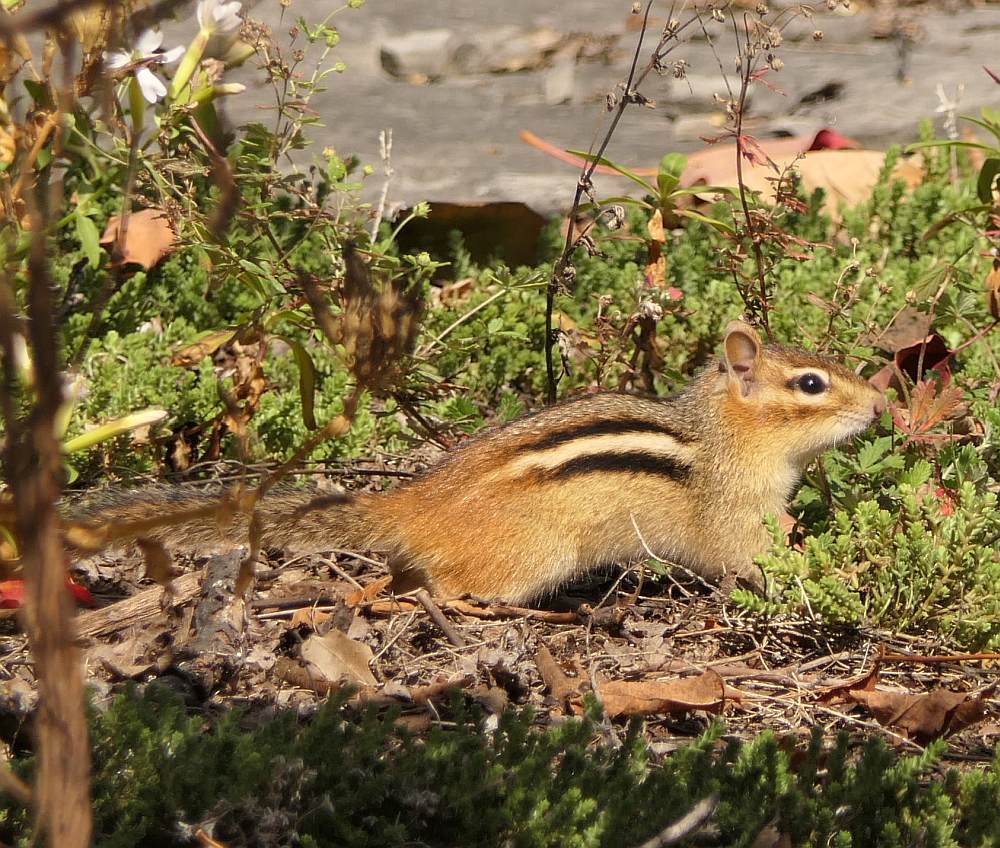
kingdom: Animalia
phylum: Chordata
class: Mammalia
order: Rodentia
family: Sciuridae
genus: Tamias
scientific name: Tamias striatus
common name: Eastern chipmunk
